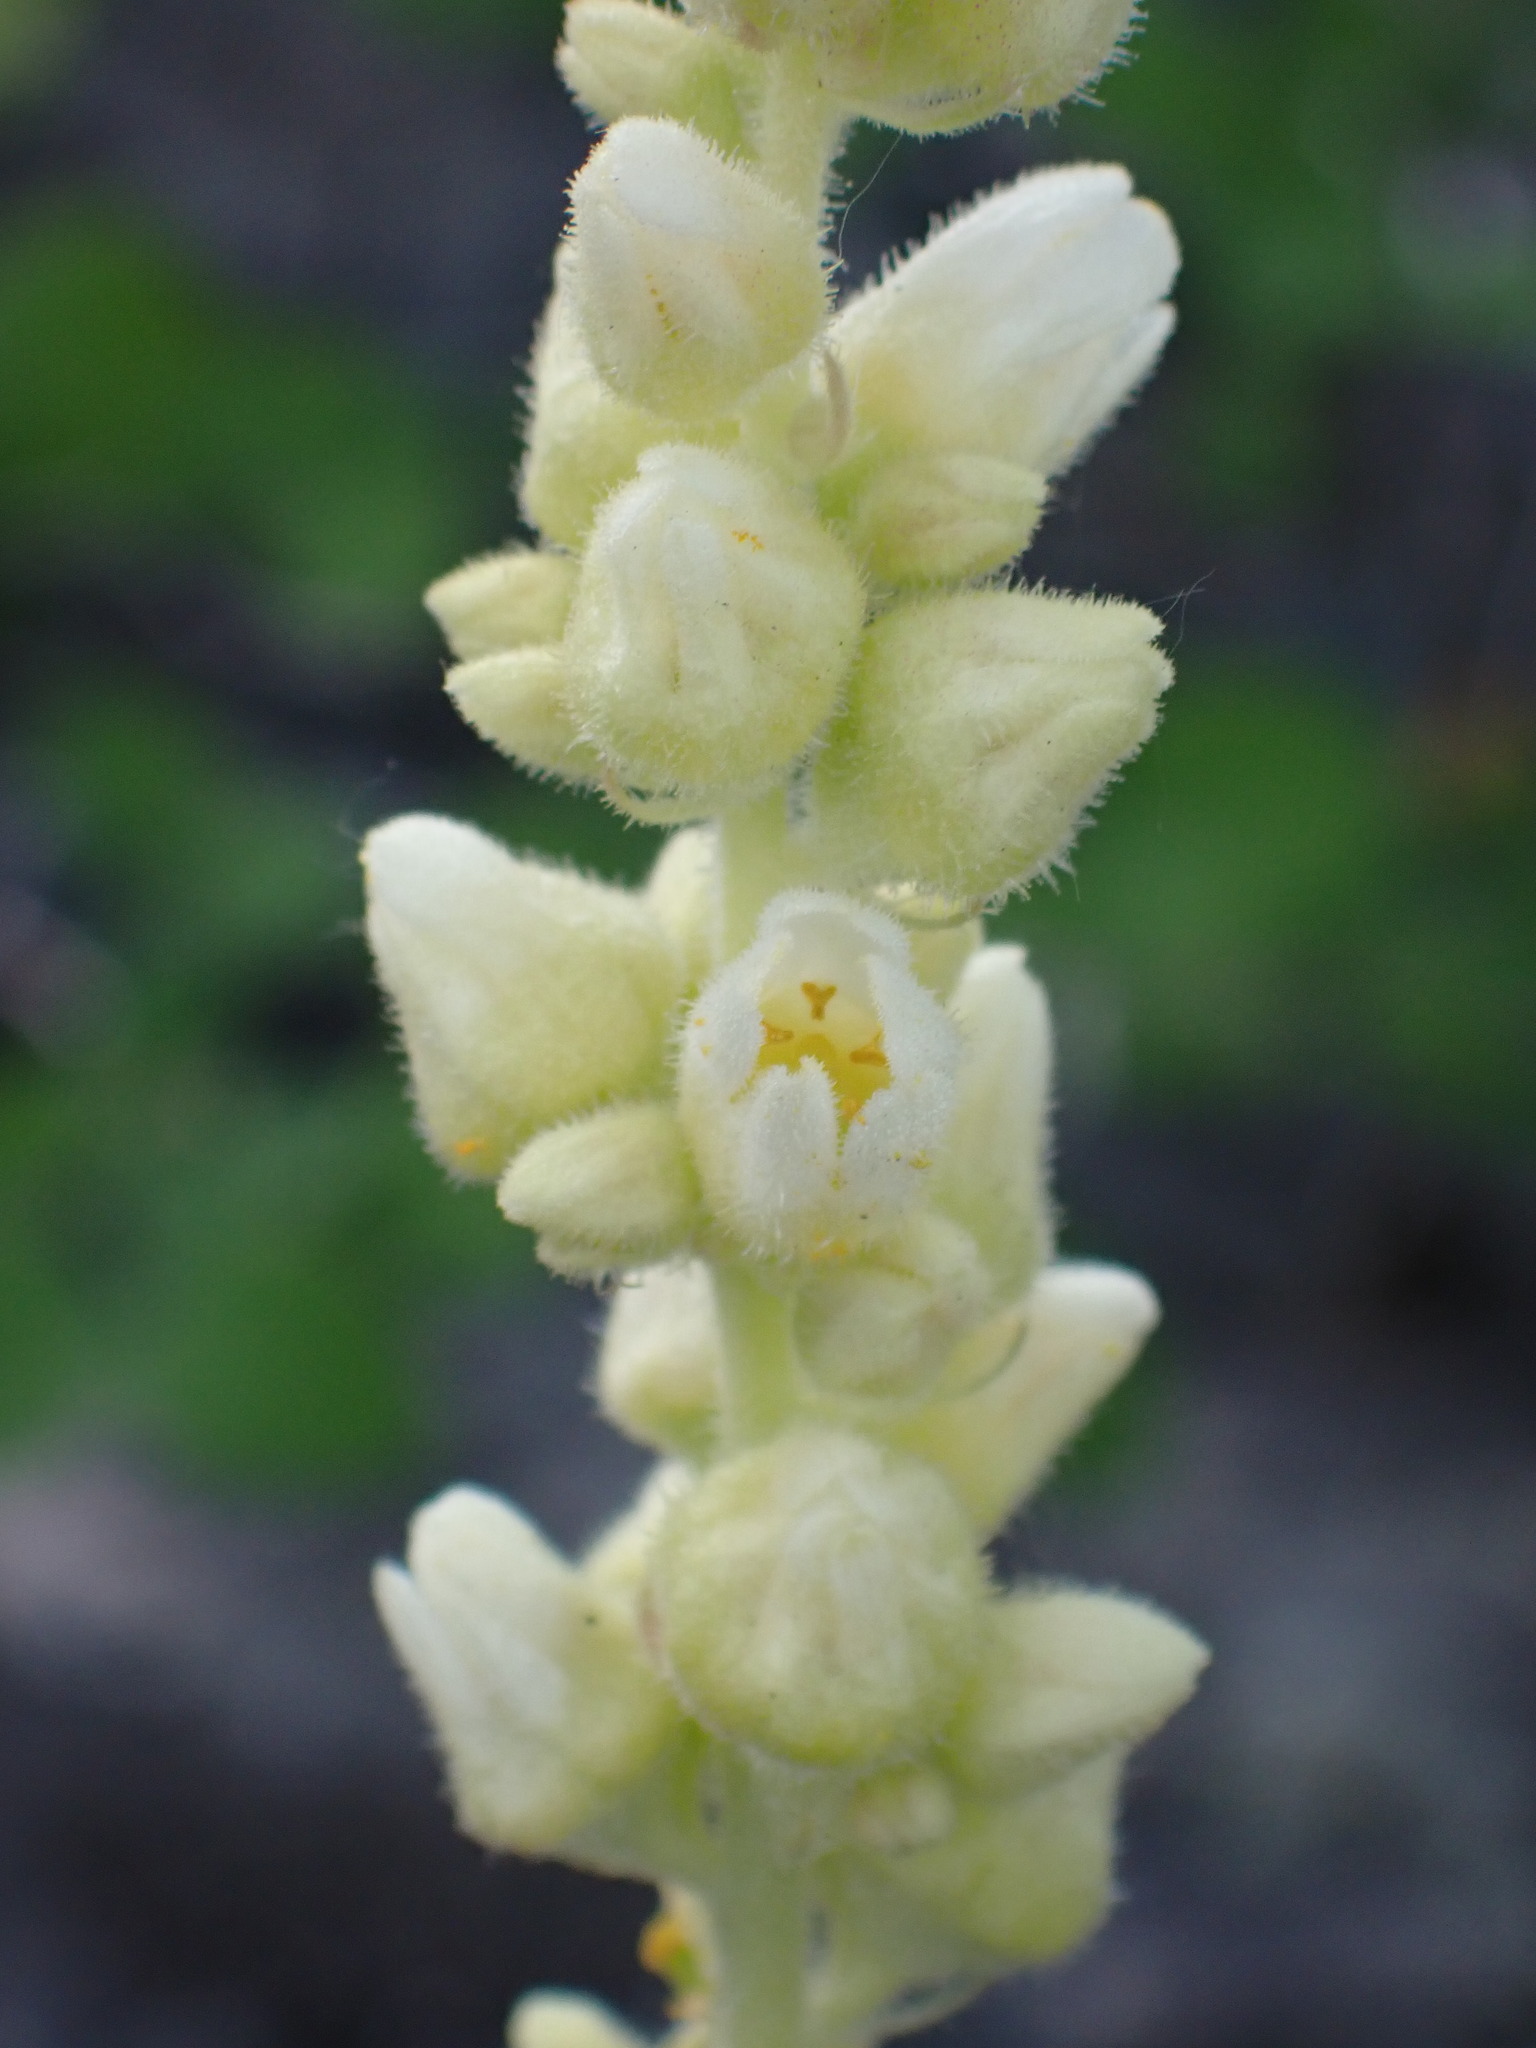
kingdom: Plantae
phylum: Tracheophyta
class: Magnoliopsida
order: Saxifragales
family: Saxifragaceae
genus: Heuchera
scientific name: Heuchera cylindrica
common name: Mat alumroot
